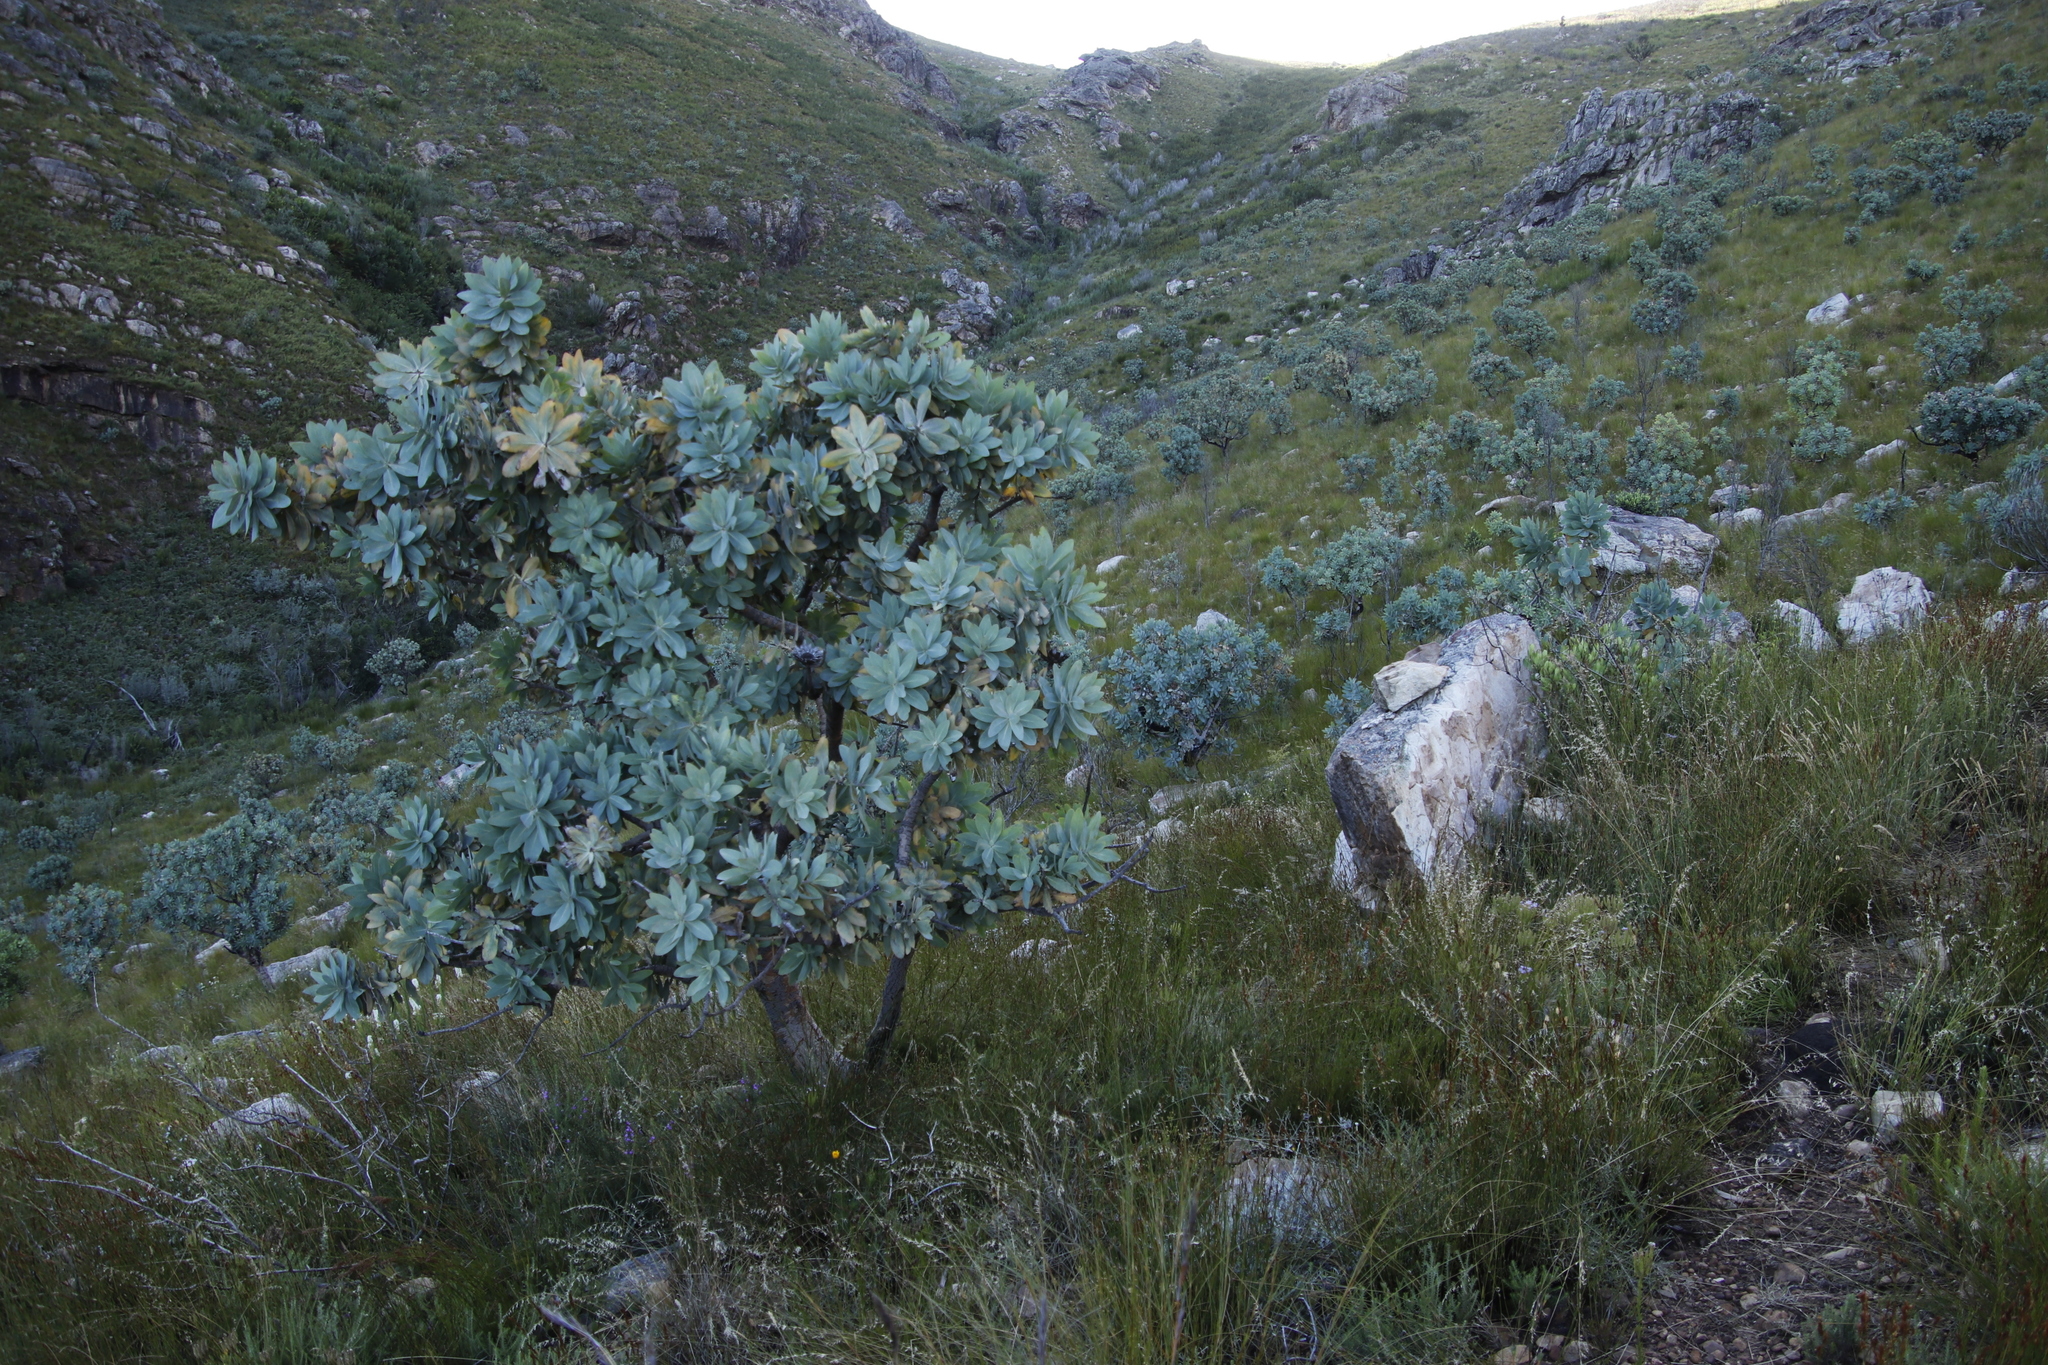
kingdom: Plantae
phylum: Tracheophyta
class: Magnoliopsida
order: Proteales
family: Proteaceae
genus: Protea
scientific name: Protea nitida
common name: Tree protea
